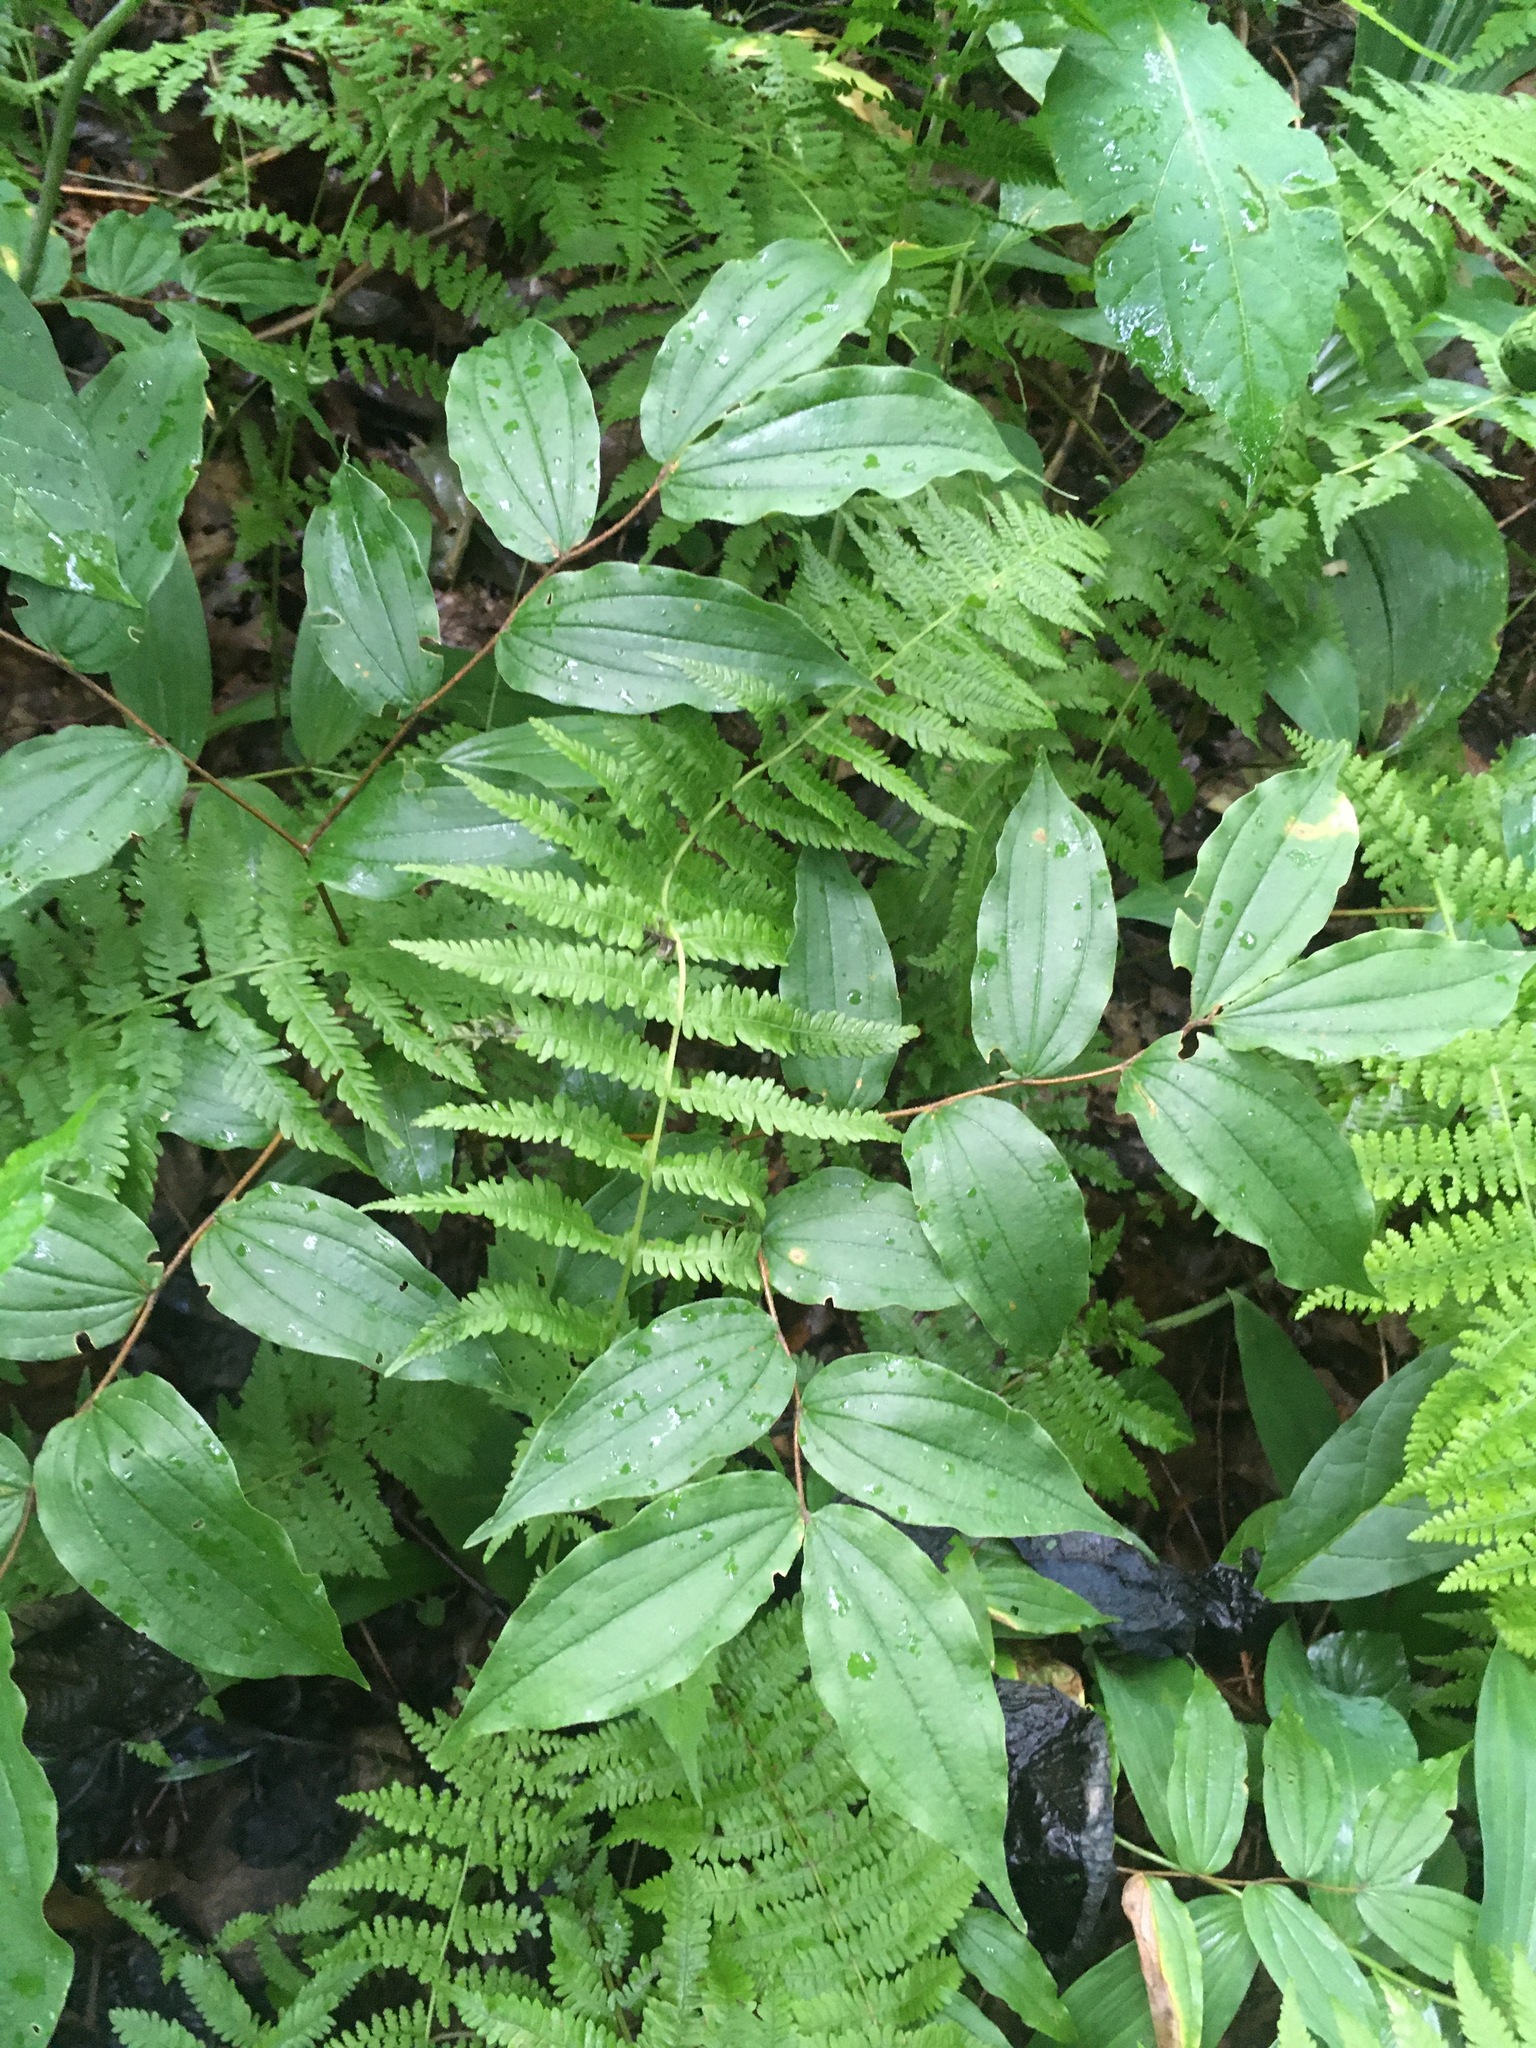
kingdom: Plantae
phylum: Tracheophyta
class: Liliopsida
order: Liliales
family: Liliaceae
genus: Prosartes
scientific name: Prosartes lanuginosa
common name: Hairy mandarin
